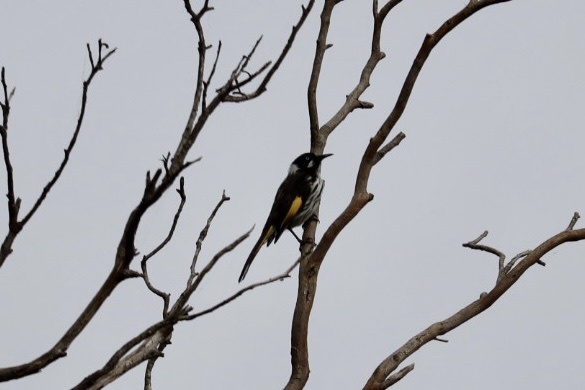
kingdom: Animalia
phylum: Chordata
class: Aves
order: Passeriformes
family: Meliphagidae
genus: Phylidonyris
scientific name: Phylidonyris novaehollandiae
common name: New holland honeyeater
